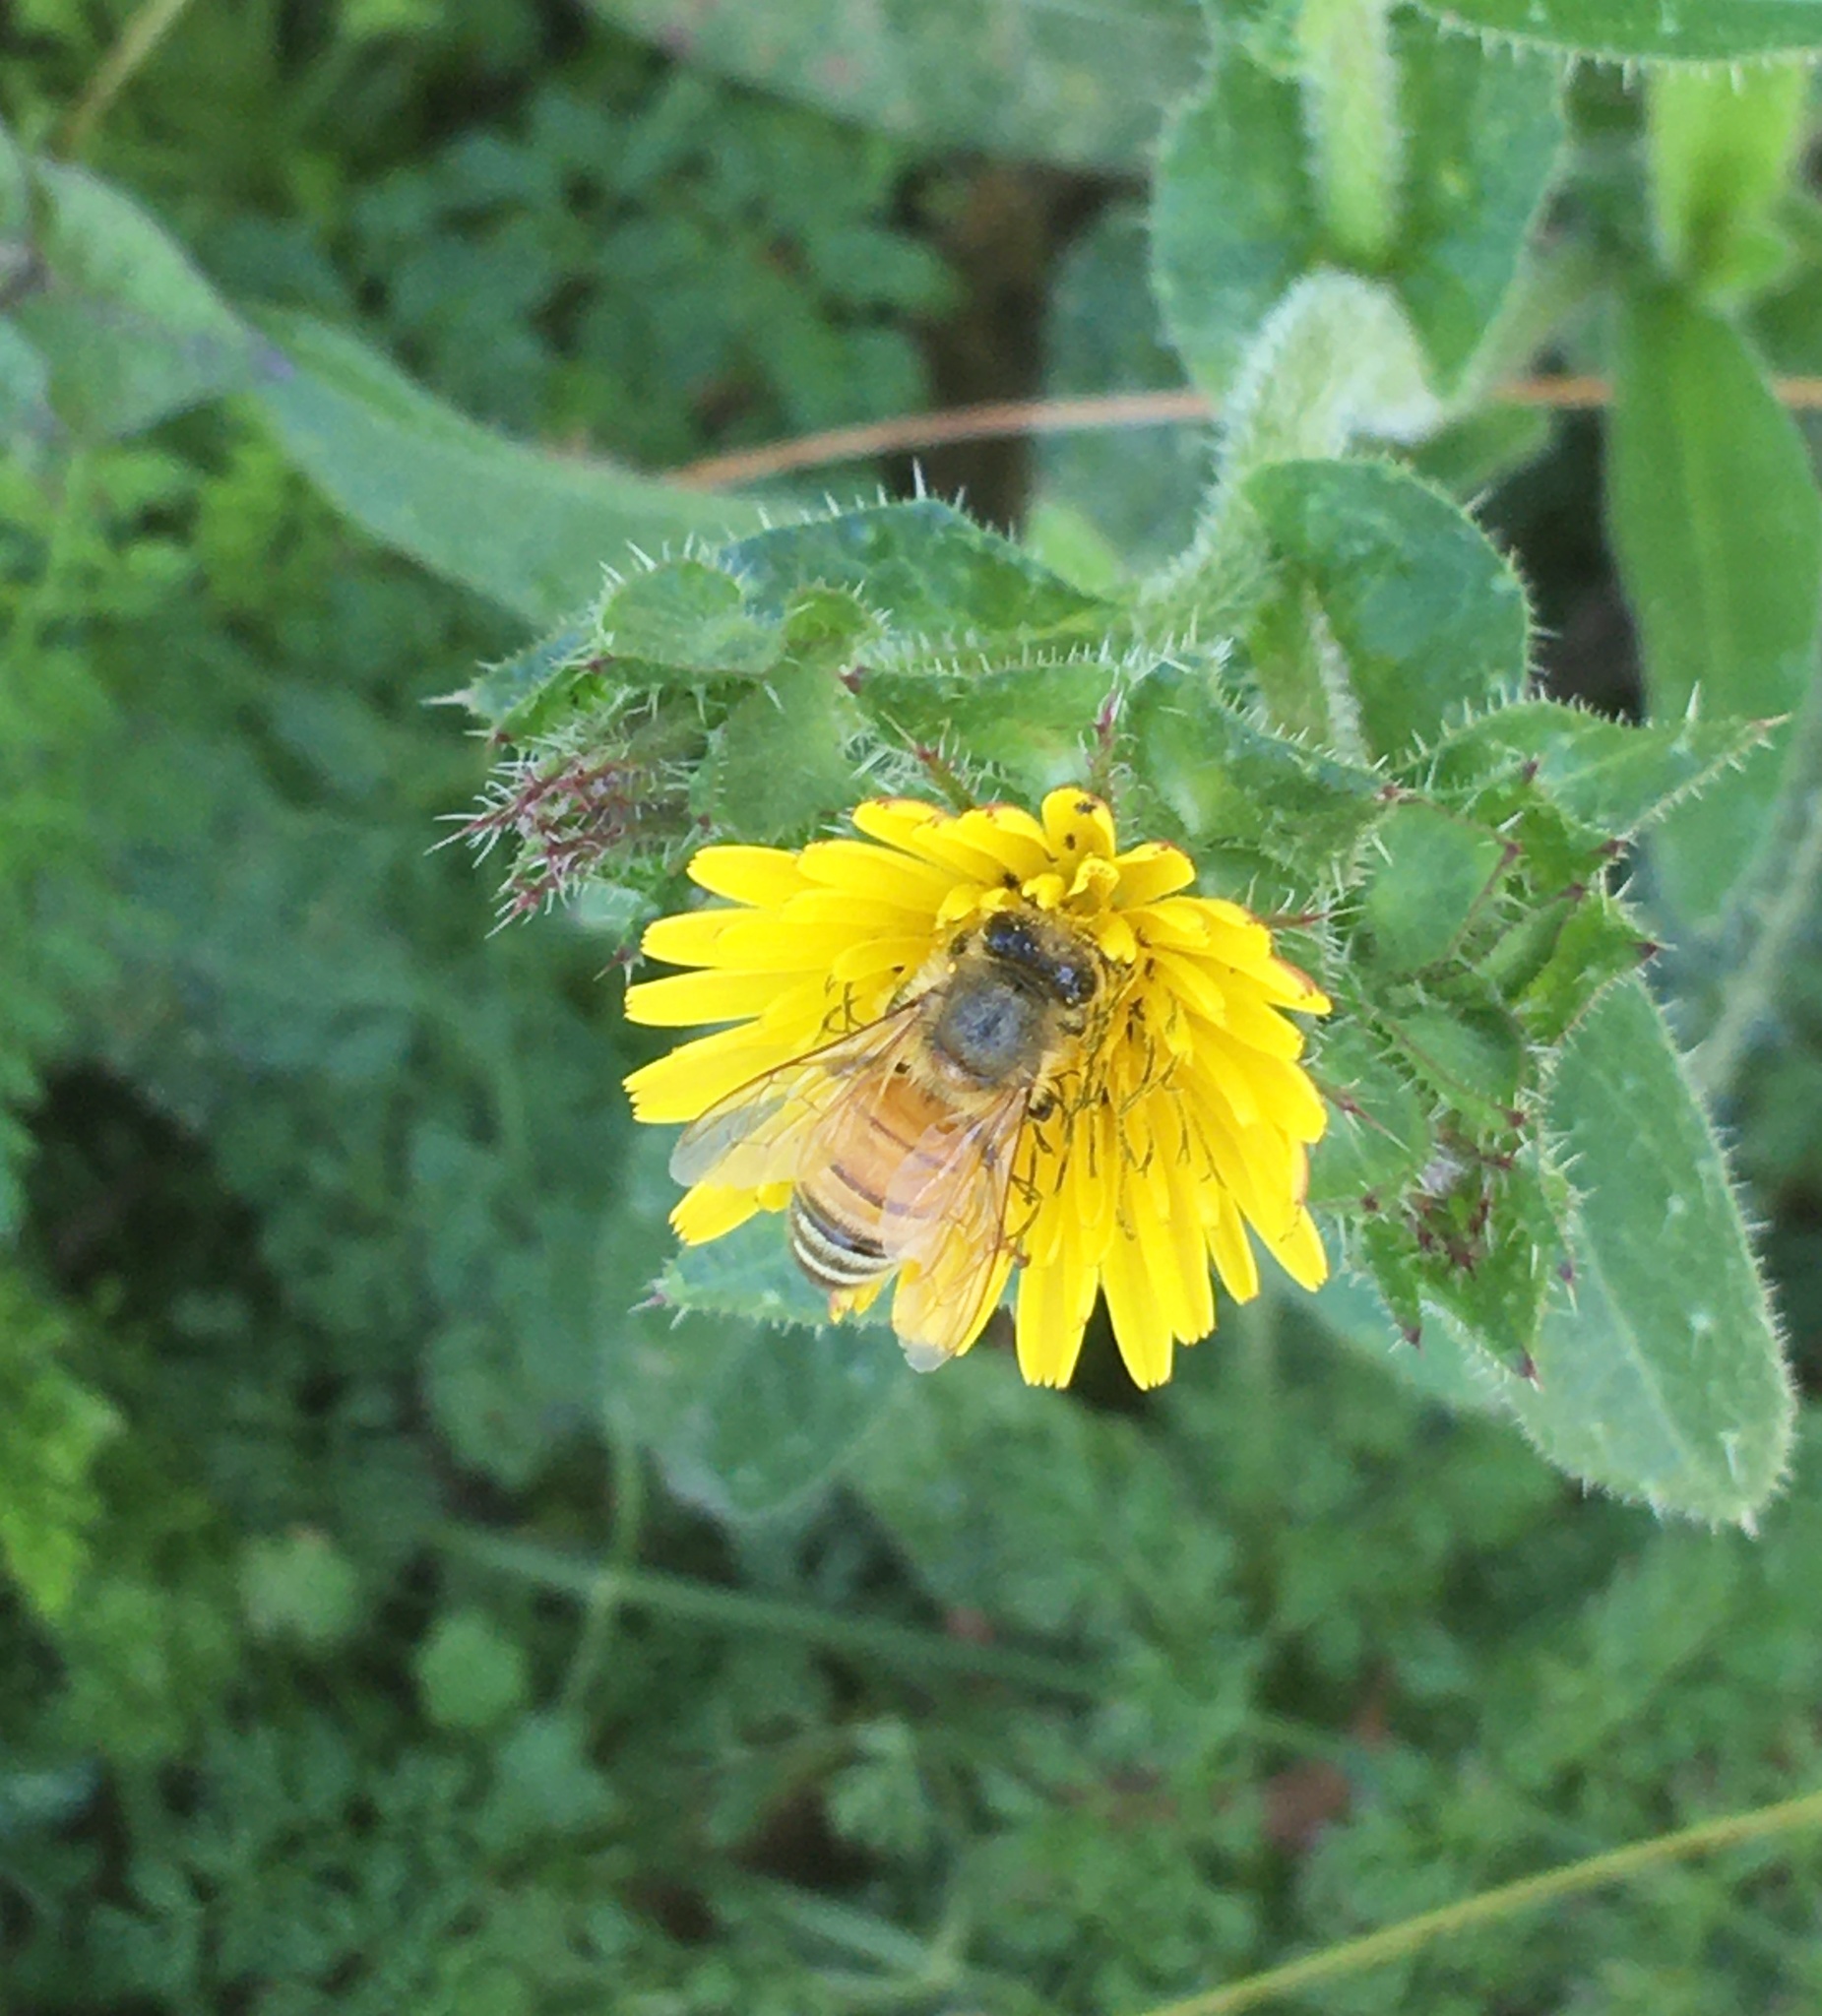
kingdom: Animalia
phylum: Arthropoda
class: Insecta
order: Hymenoptera
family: Apidae
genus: Apis
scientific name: Apis mellifera
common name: Honey bee
